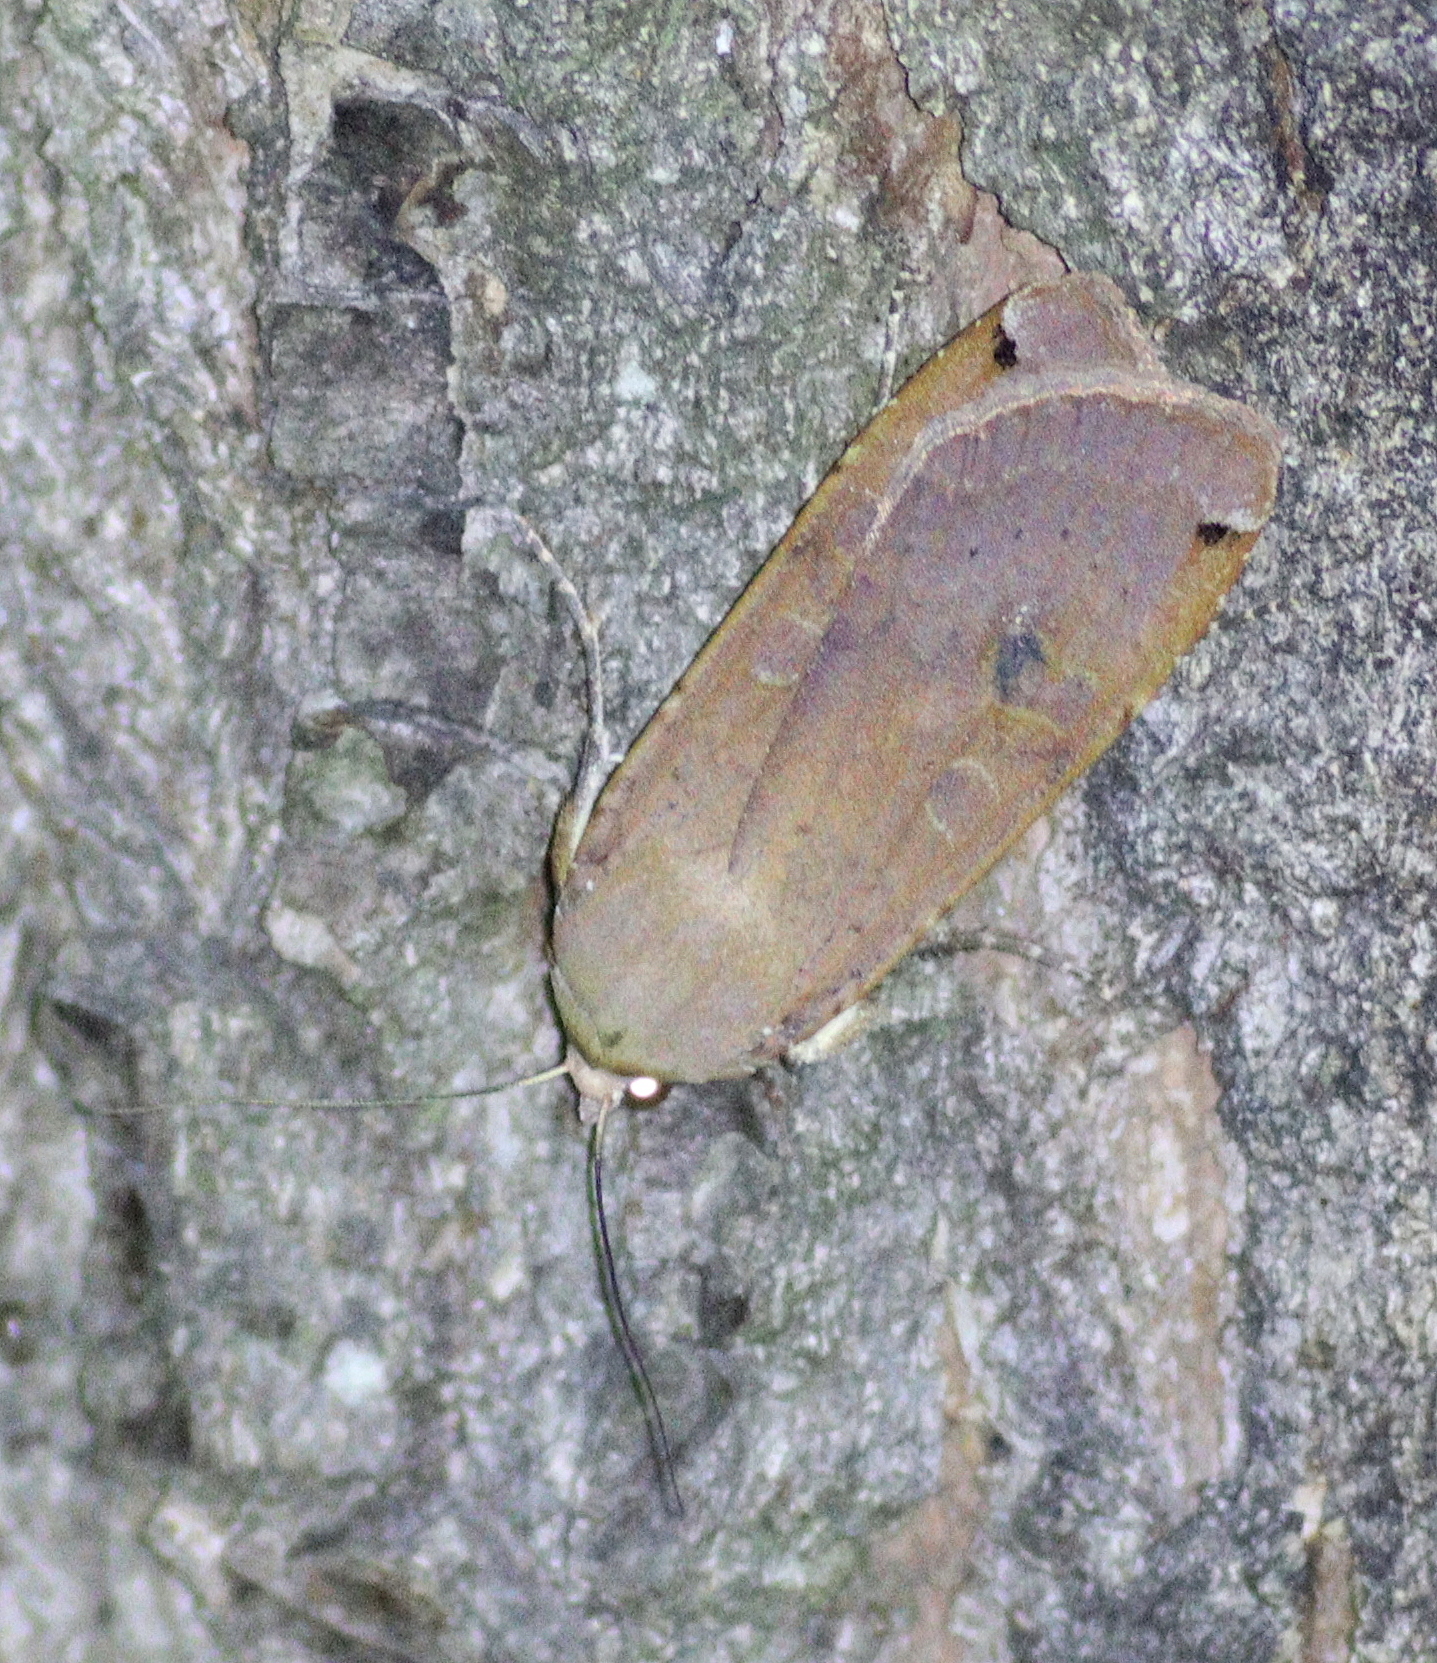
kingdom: Animalia
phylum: Arthropoda
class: Insecta
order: Lepidoptera
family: Noctuidae
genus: Noctua
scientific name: Noctua pronuba
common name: Large yellow underwing
